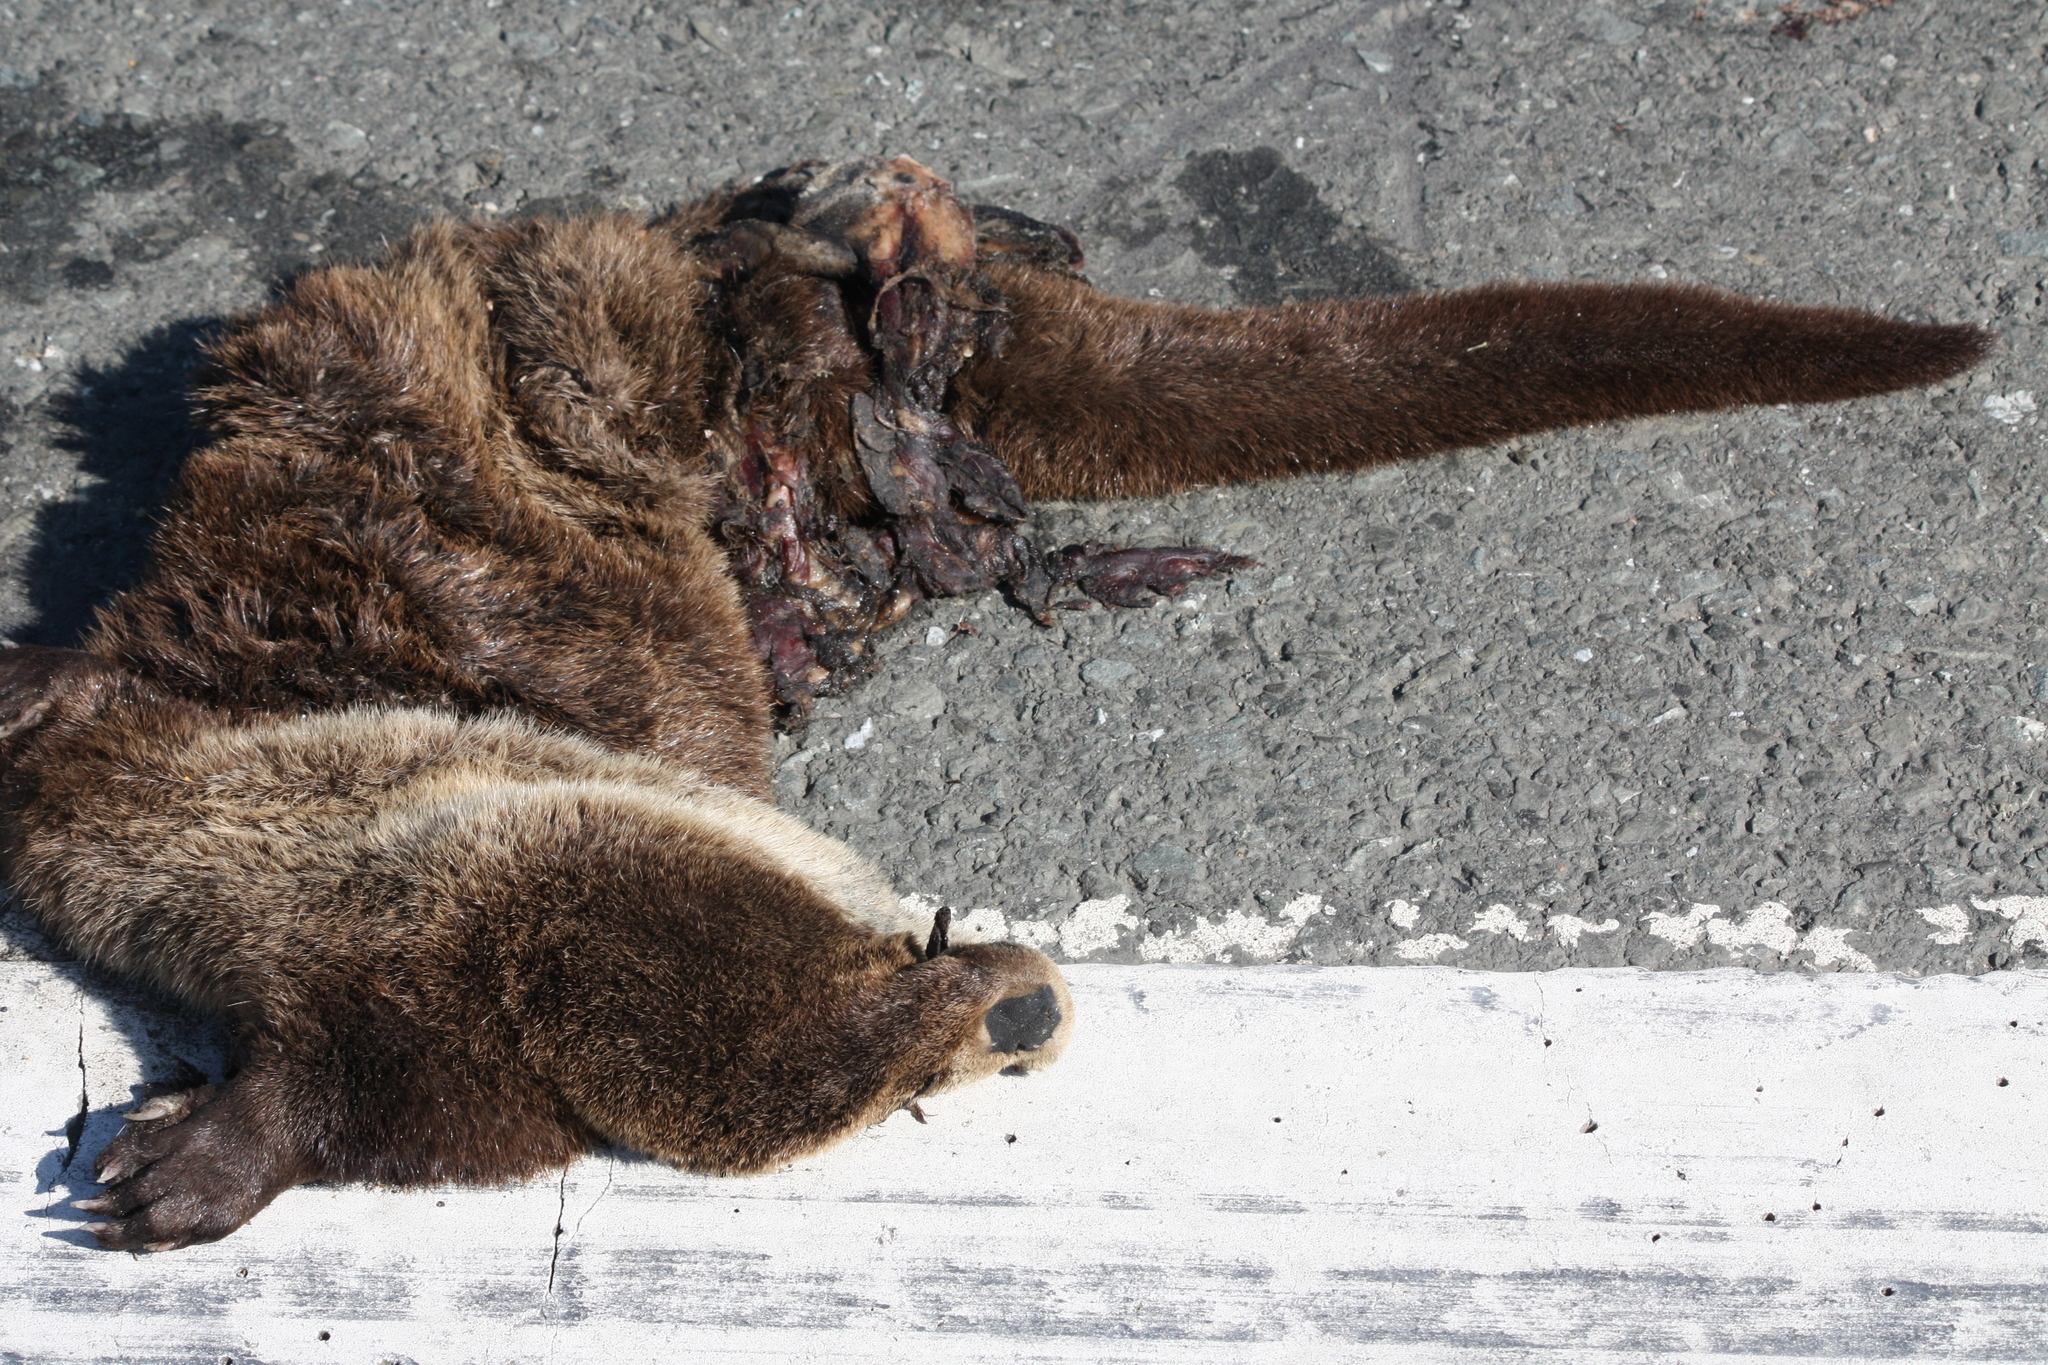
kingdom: Animalia
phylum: Chordata
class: Mammalia
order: Carnivora
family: Mustelidae
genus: Lontra
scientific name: Lontra canadensis
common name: North american river otter
